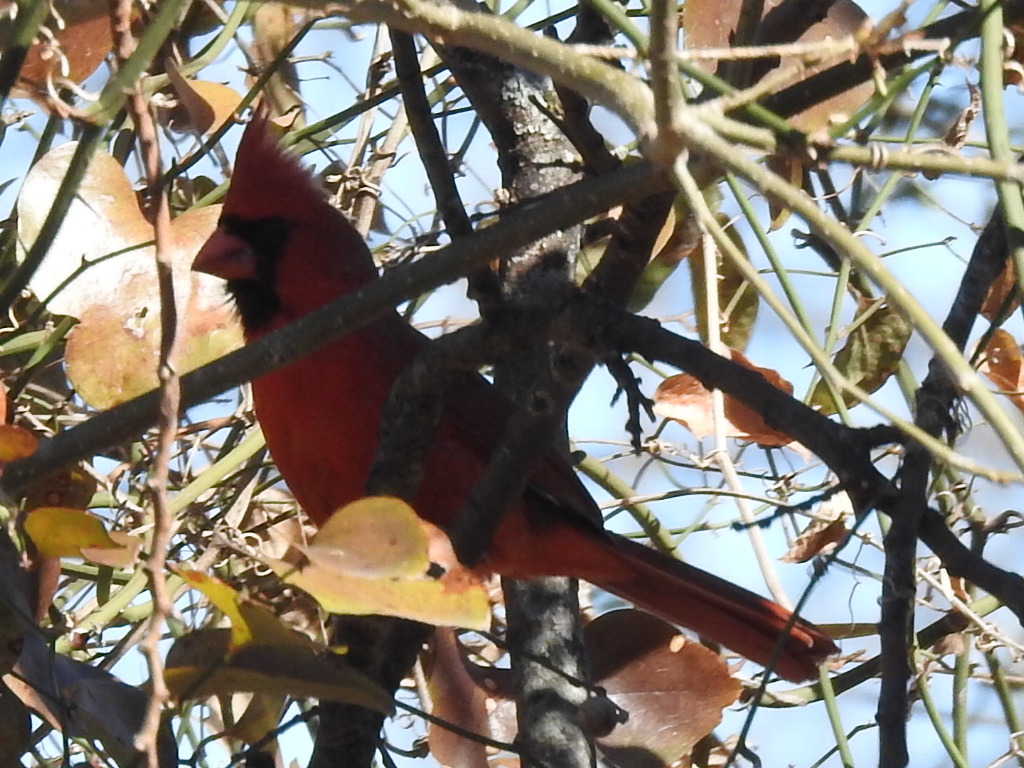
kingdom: Animalia
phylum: Chordata
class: Aves
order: Passeriformes
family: Cardinalidae
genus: Cardinalis
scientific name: Cardinalis cardinalis
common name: Northern cardinal
